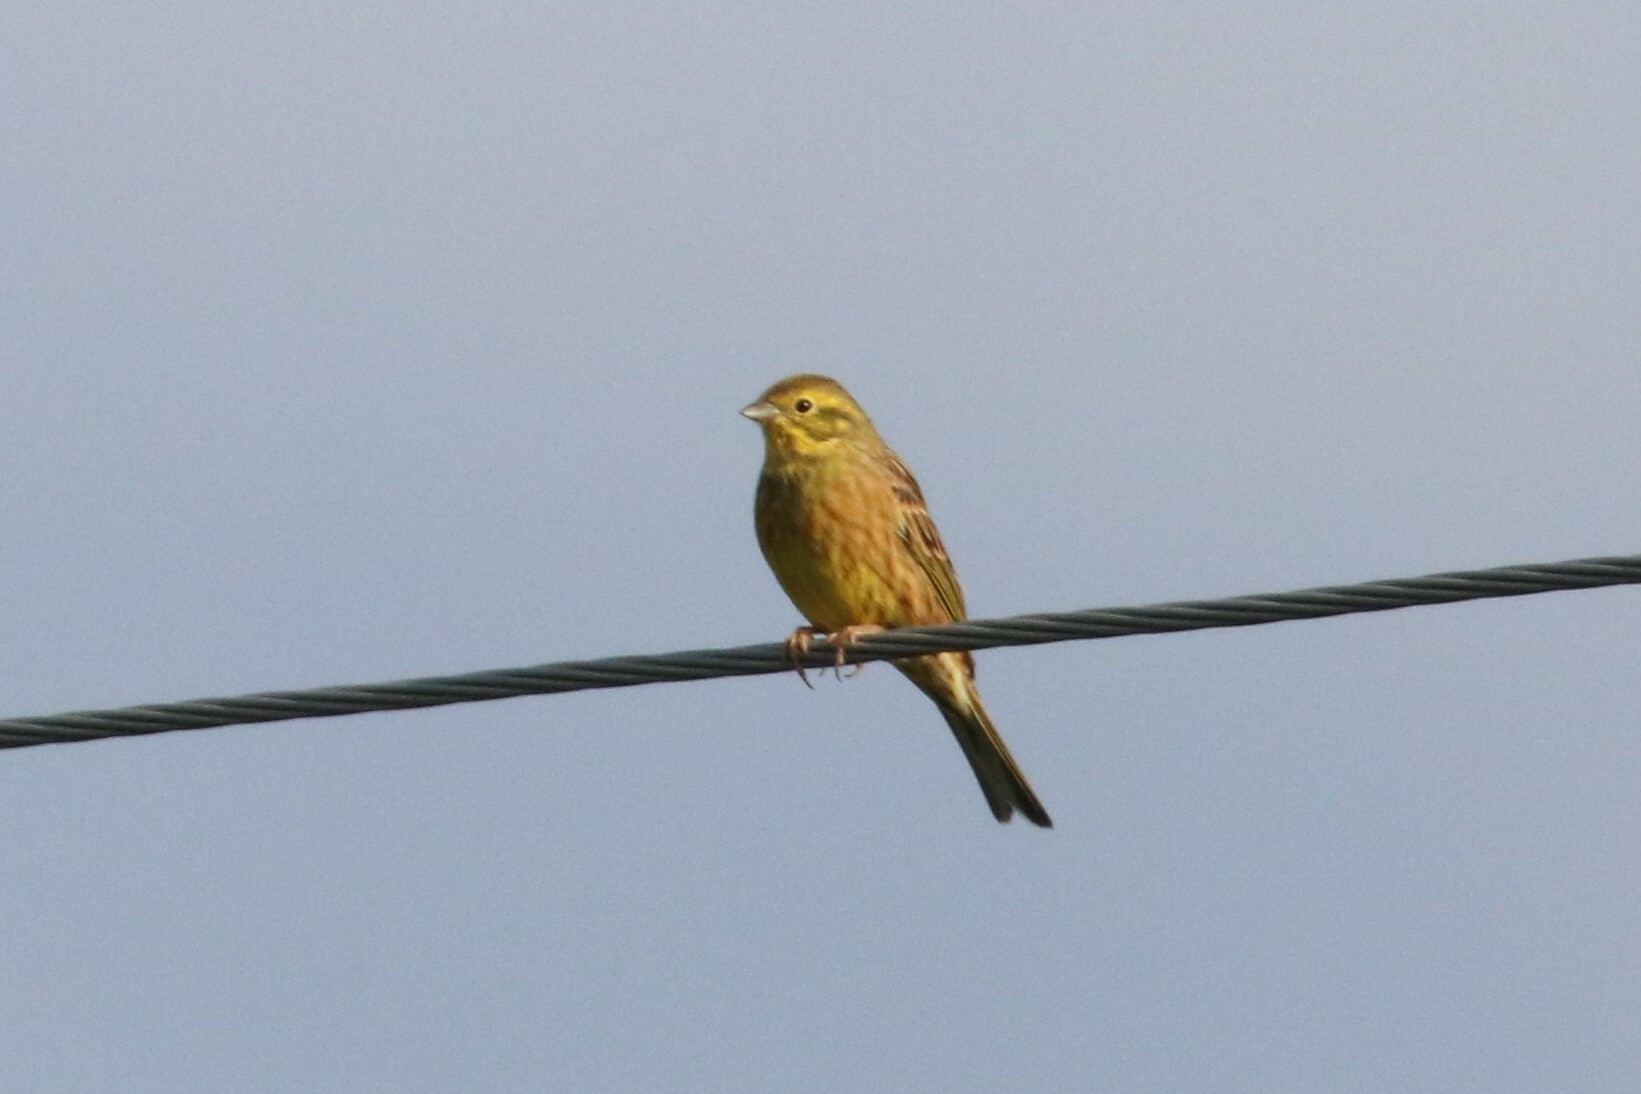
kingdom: Animalia
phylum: Chordata
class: Aves
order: Passeriformes
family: Emberizidae
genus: Emberiza
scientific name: Emberiza citrinella
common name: Yellowhammer
